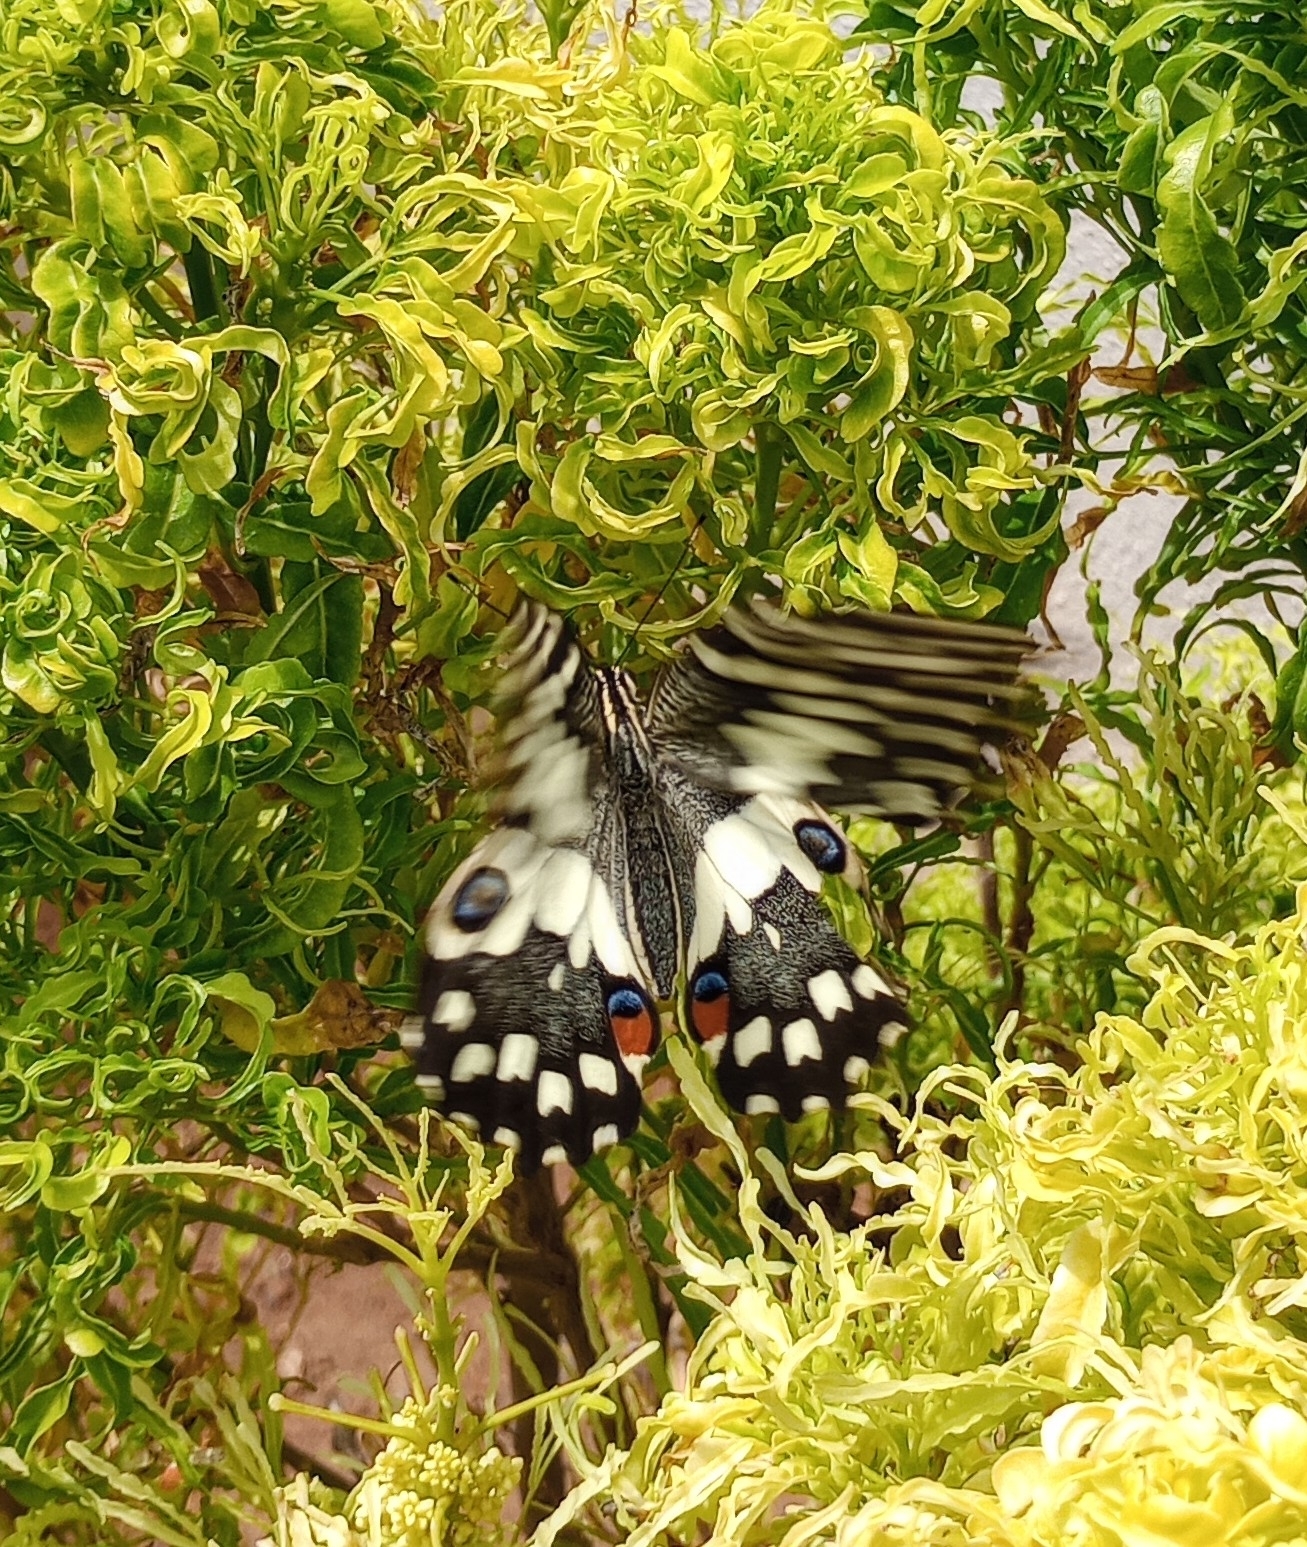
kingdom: Animalia
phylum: Arthropoda
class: Insecta
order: Lepidoptera
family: Papilionidae
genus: Papilio
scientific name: Papilio demoleus
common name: Lime butterfly
